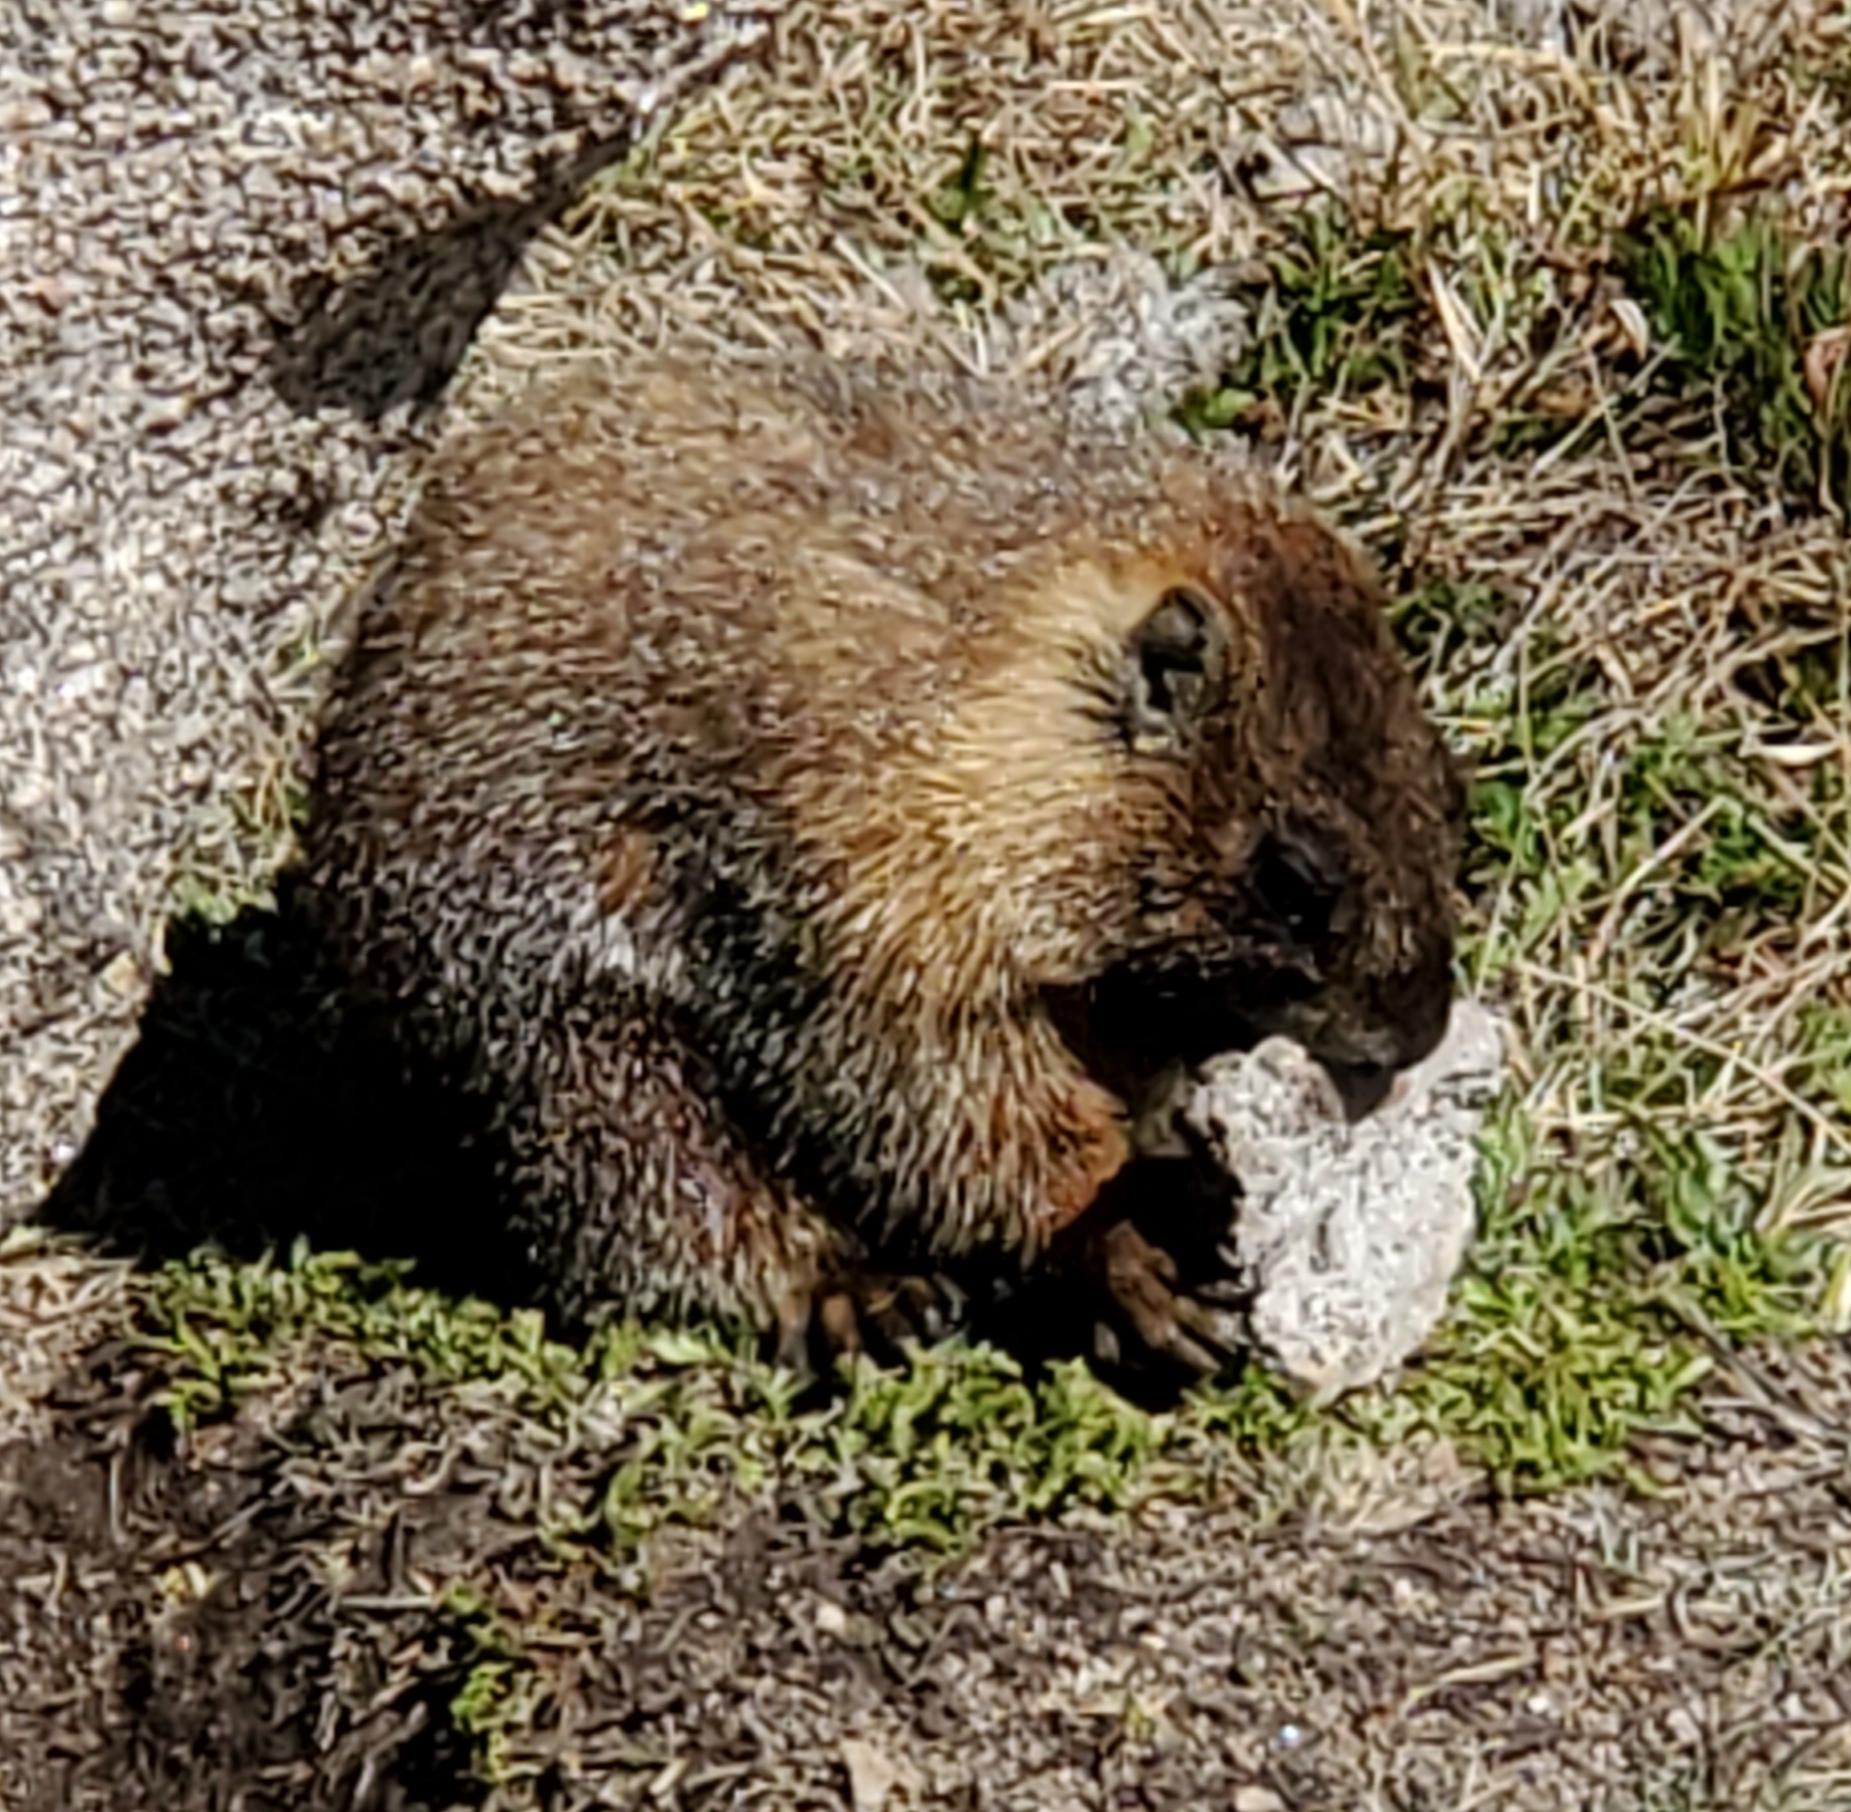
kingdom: Animalia
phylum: Chordata
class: Mammalia
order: Rodentia
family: Sciuridae
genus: Marmota
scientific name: Marmota flaviventris
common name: Yellow-bellied marmot
